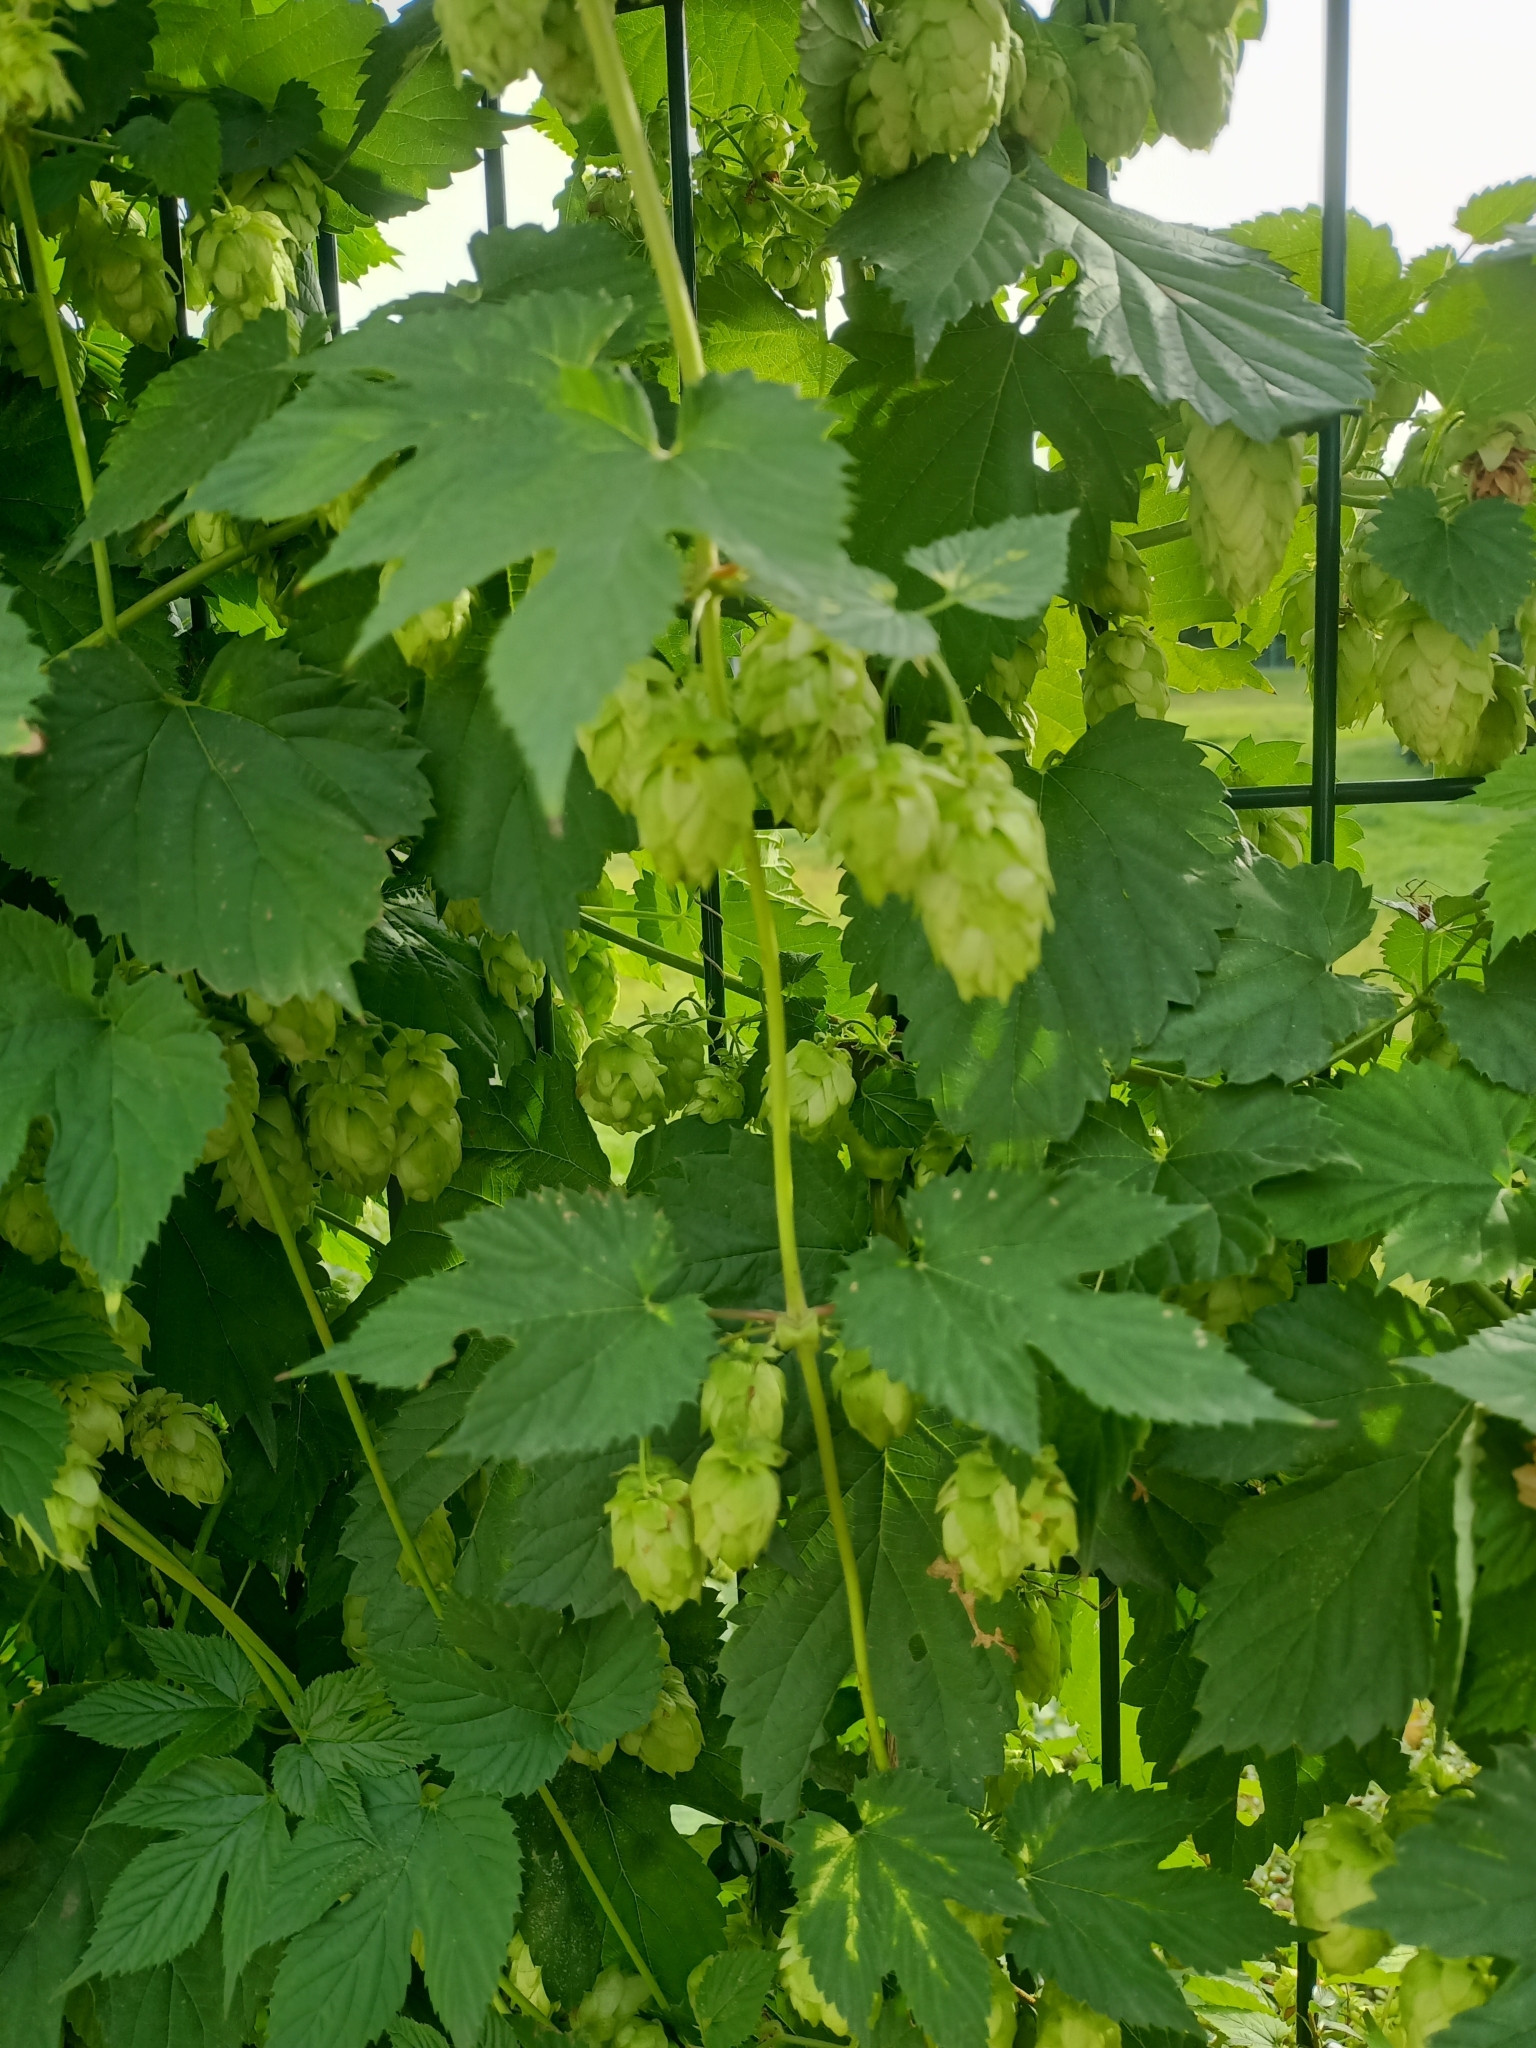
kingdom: Plantae
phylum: Tracheophyta
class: Magnoliopsida
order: Rosales
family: Cannabaceae
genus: Humulus
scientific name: Humulus lupulus
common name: Hop
